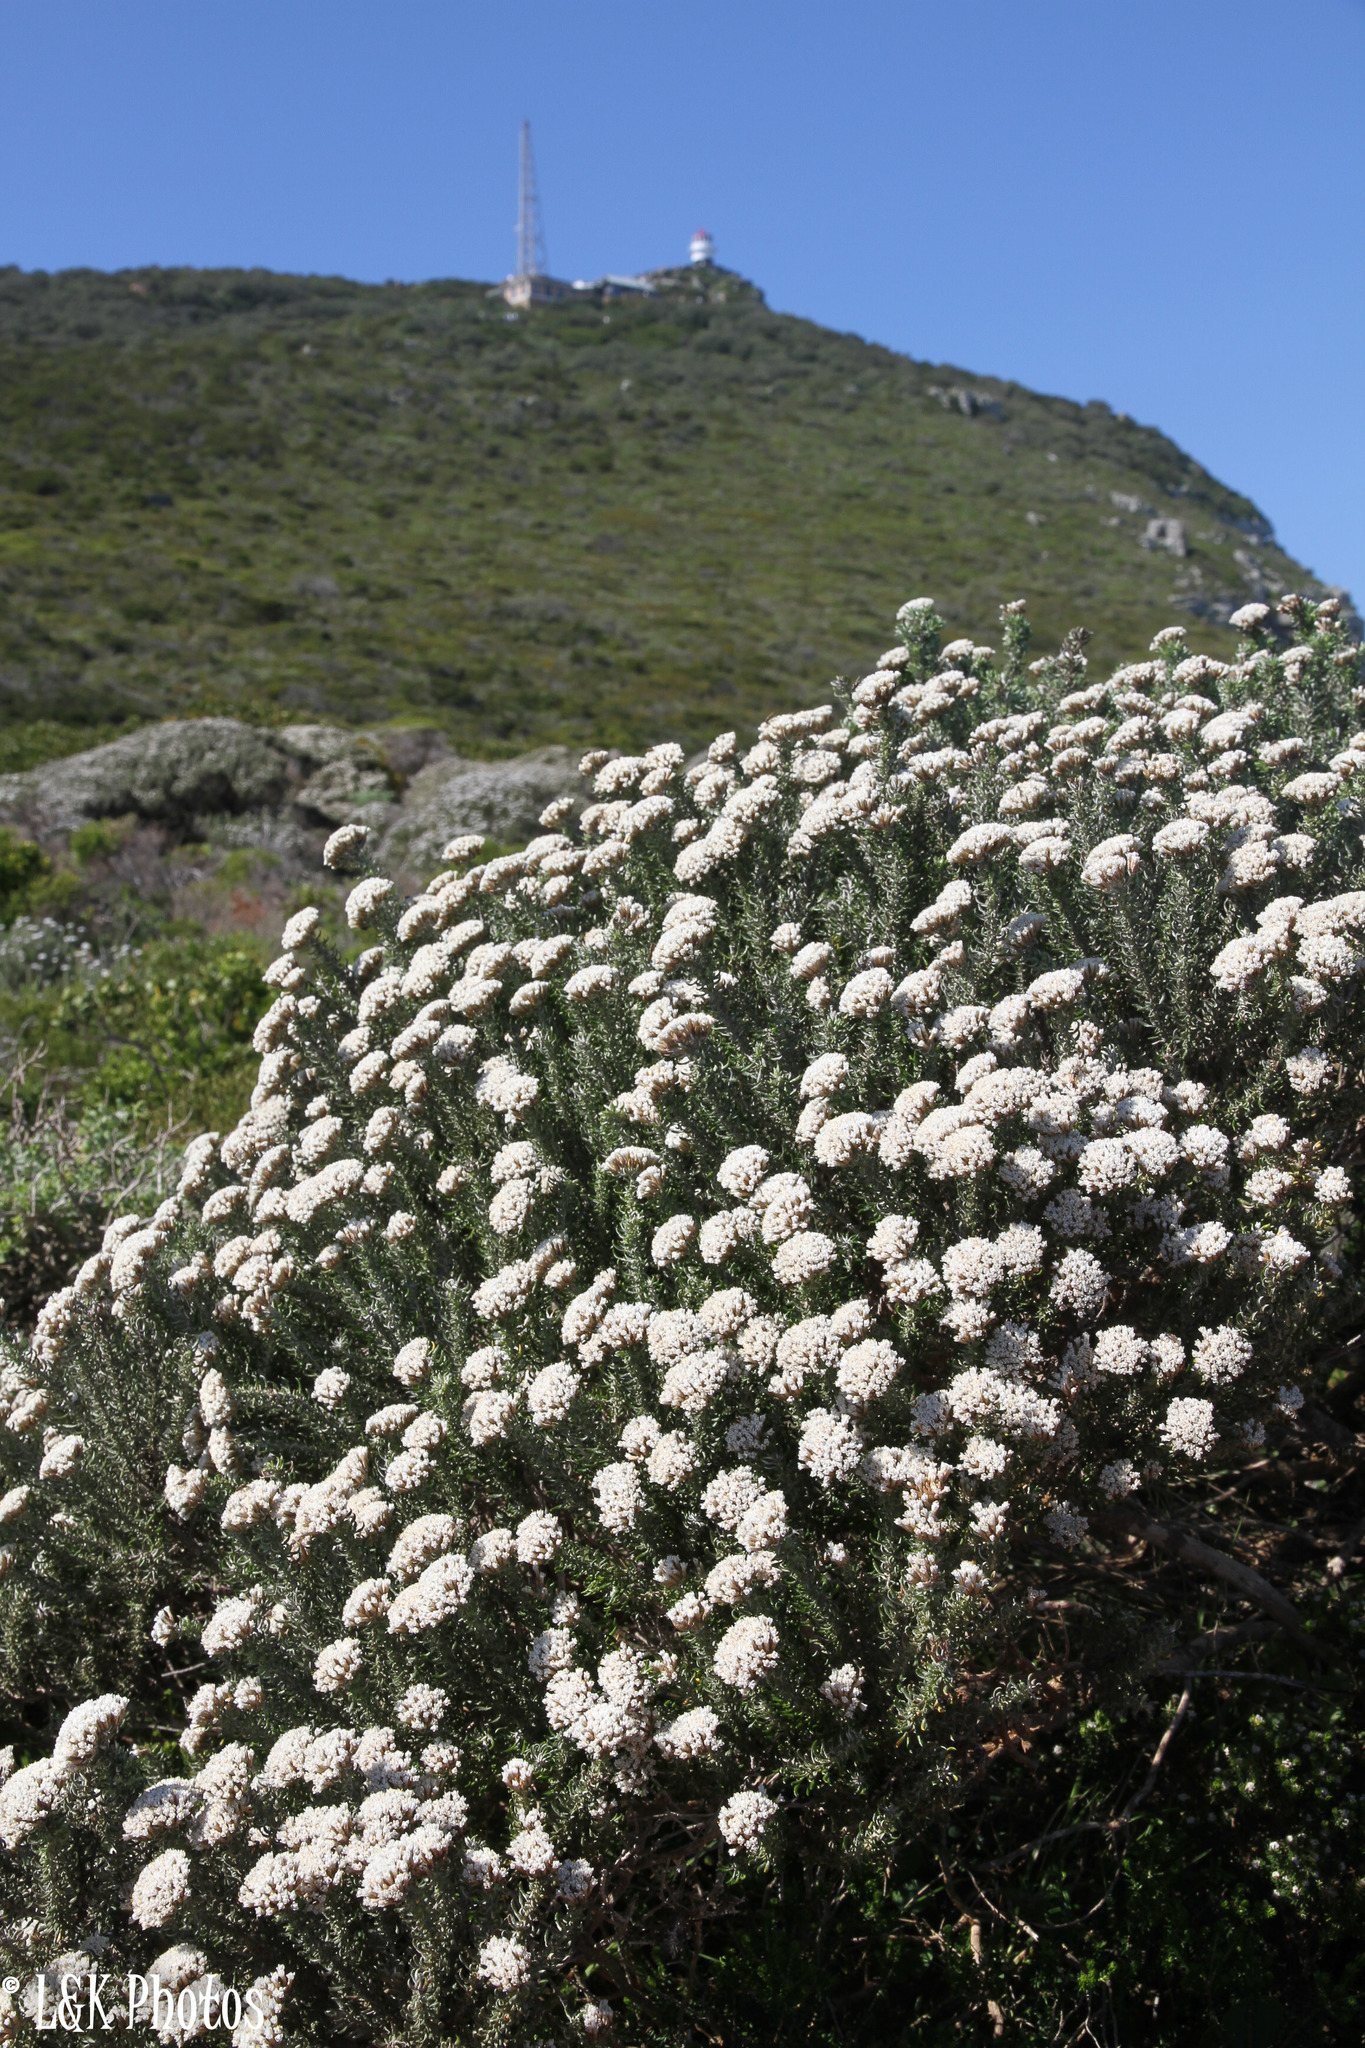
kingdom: Plantae
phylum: Tracheophyta
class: Magnoliopsida
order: Asterales
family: Asteraceae
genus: Metalasia
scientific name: Metalasia muricata
